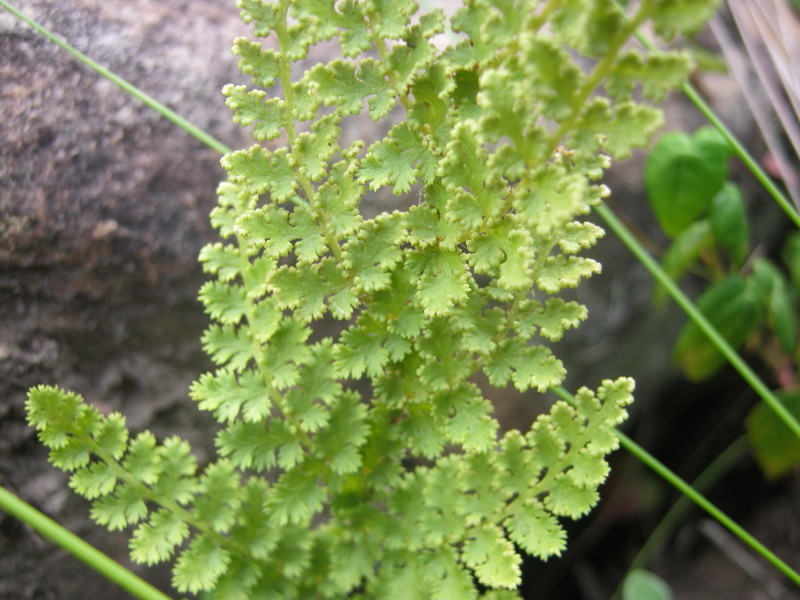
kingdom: Plantae
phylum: Tracheophyta
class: Polypodiopsida
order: Schizaeales
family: Anemiaceae
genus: Anemia
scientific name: Anemia caffrorum
